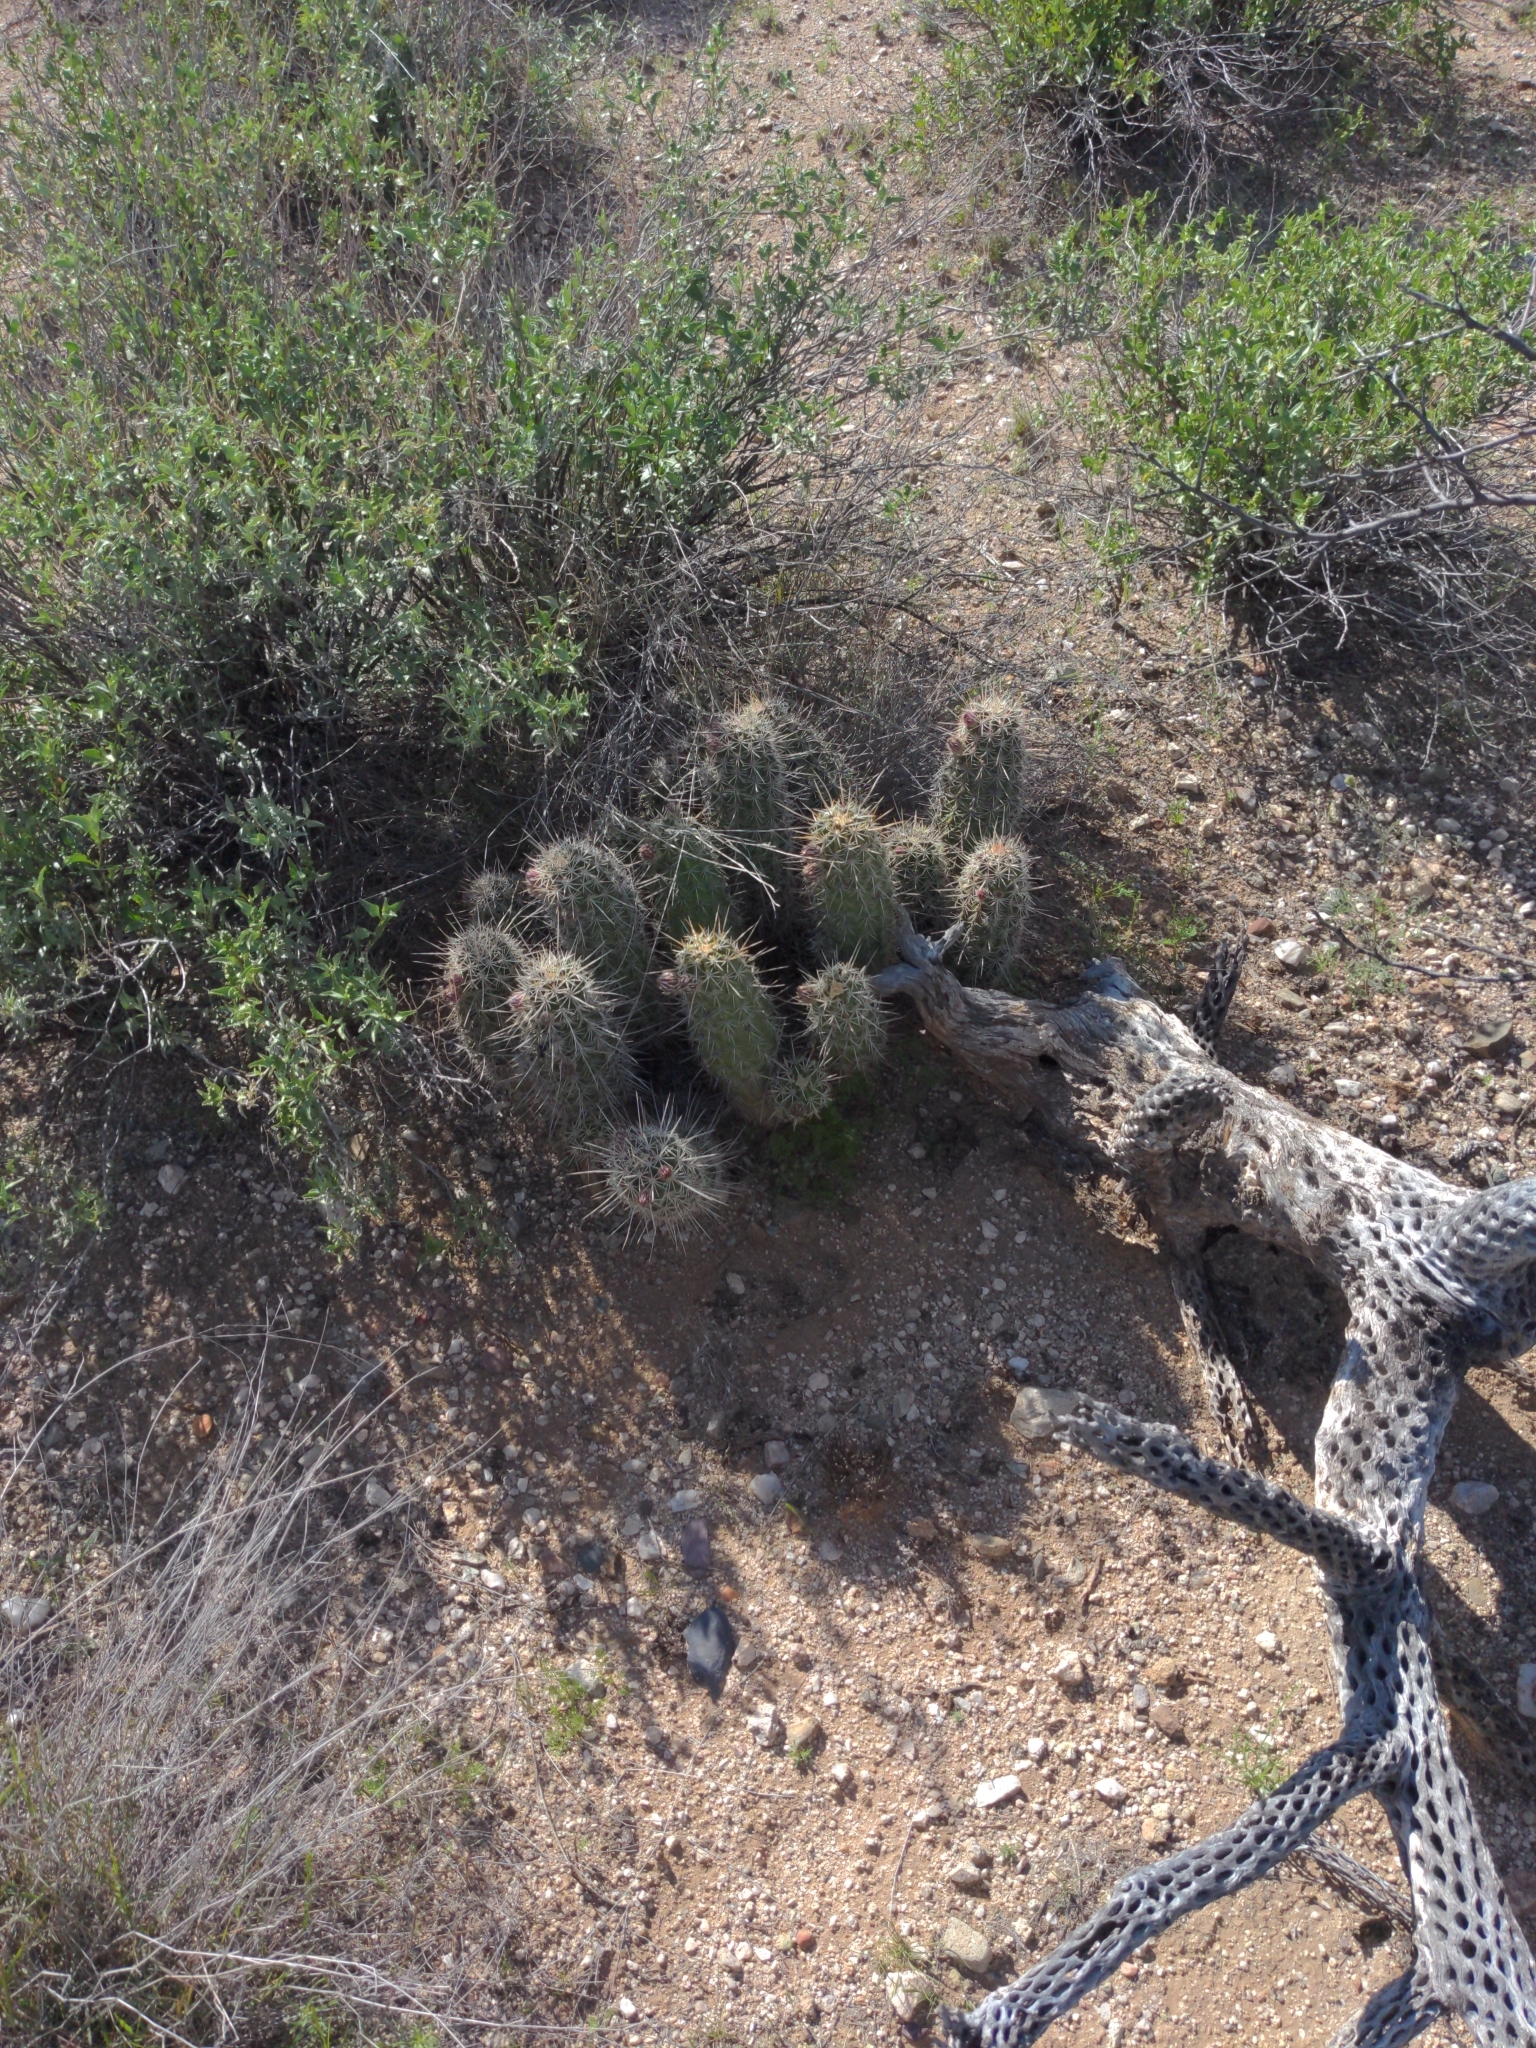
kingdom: Plantae
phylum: Tracheophyta
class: Magnoliopsida
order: Caryophyllales
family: Cactaceae
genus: Echinocereus
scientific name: Echinocereus fasciculatus
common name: Bundle hedgehog
